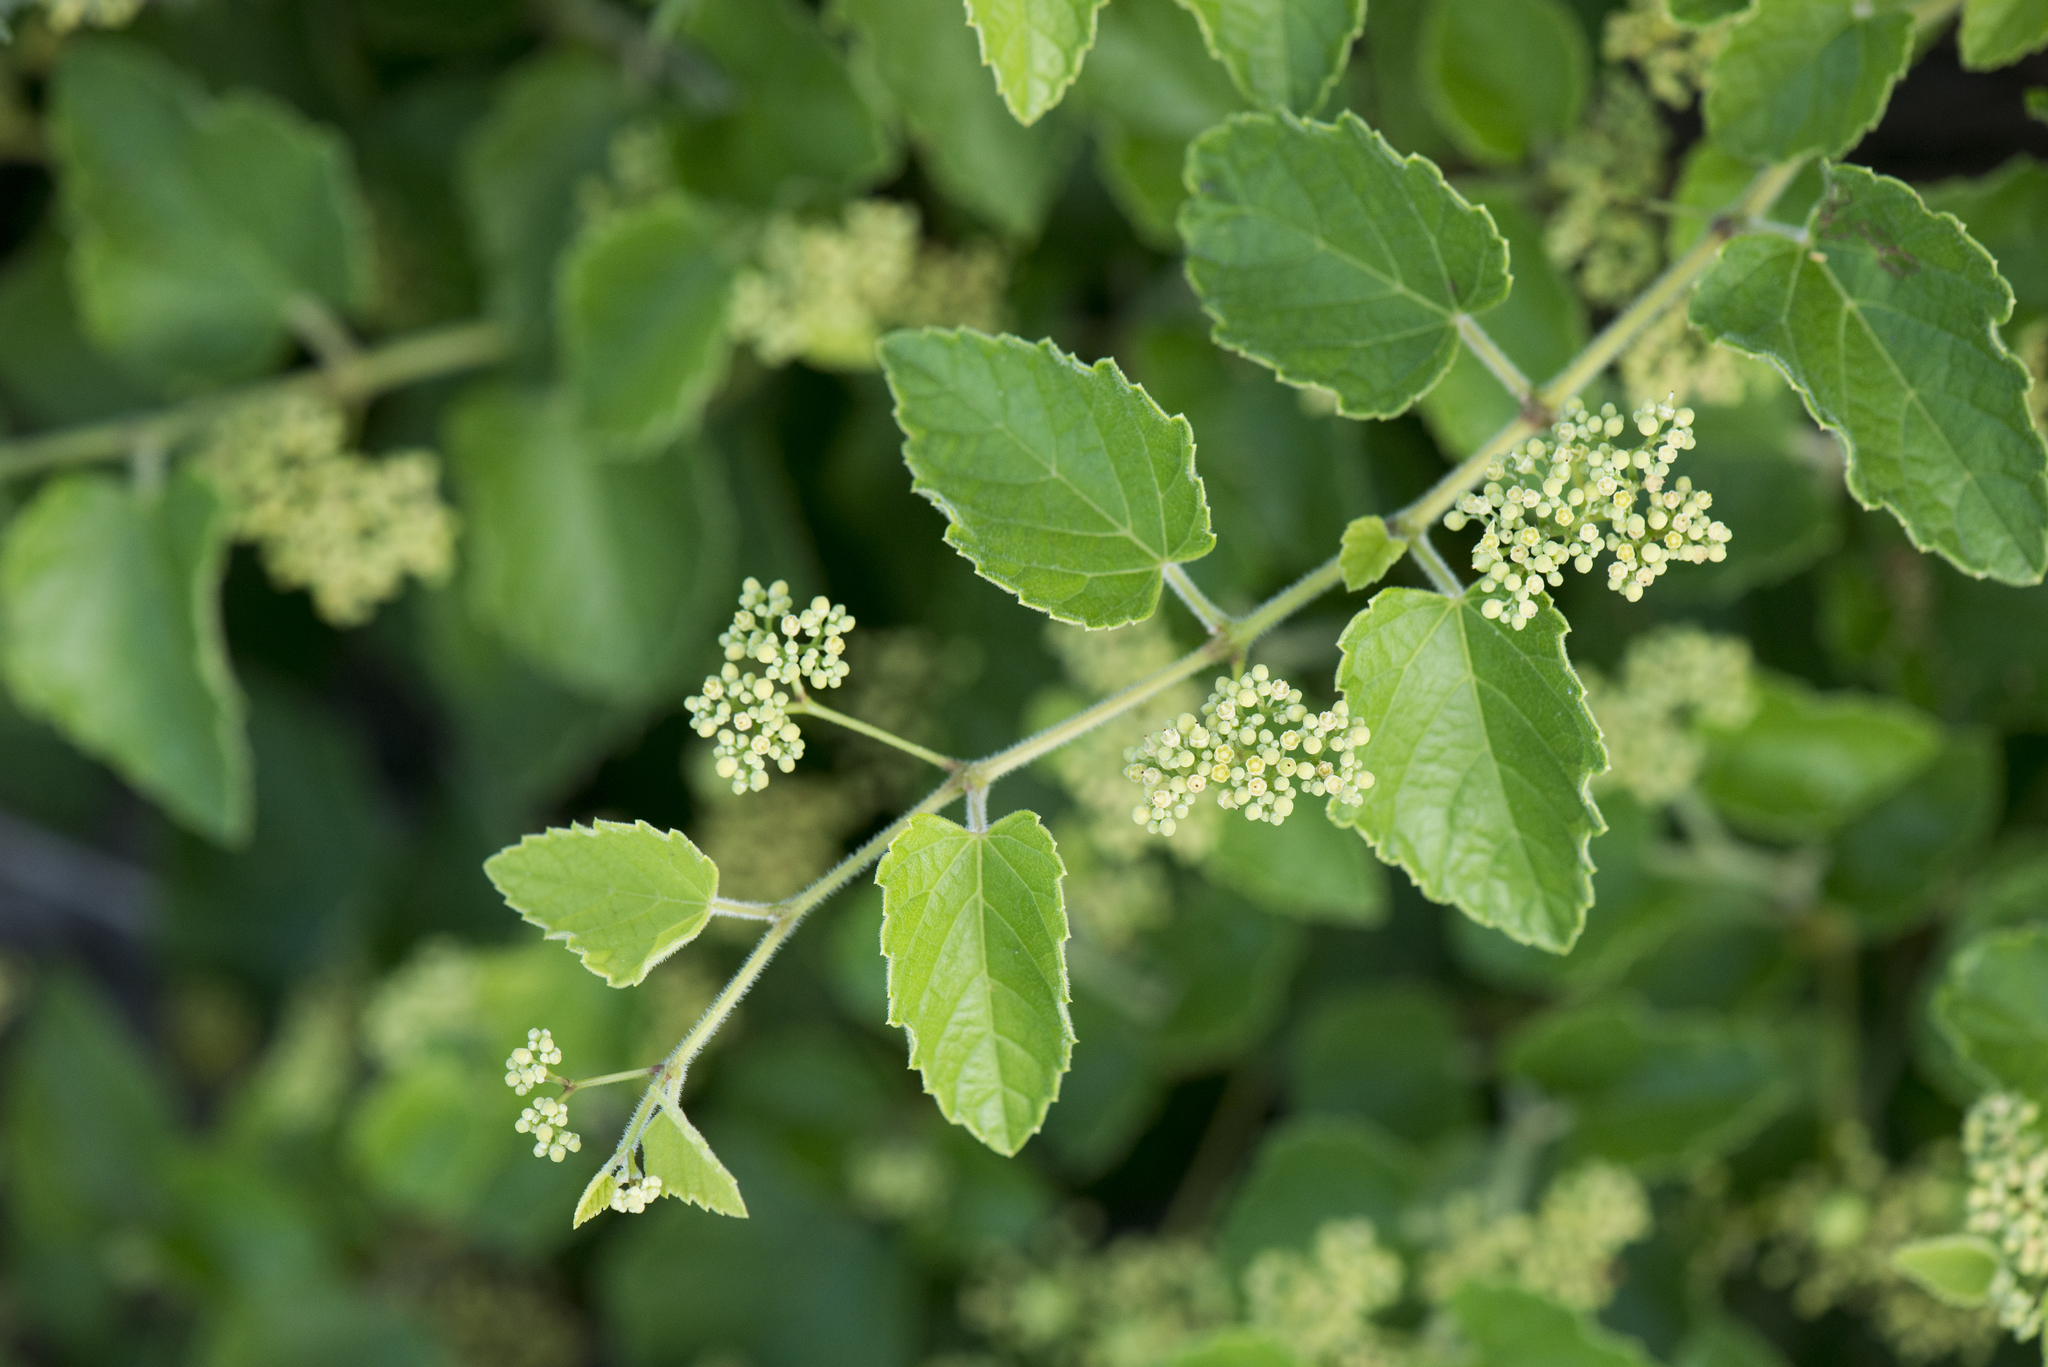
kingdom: Plantae
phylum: Tracheophyta
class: Magnoliopsida
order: Vitales
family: Vitaceae
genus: Ampelopsis
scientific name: Ampelopsis glandulosa
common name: Amur peppervine
